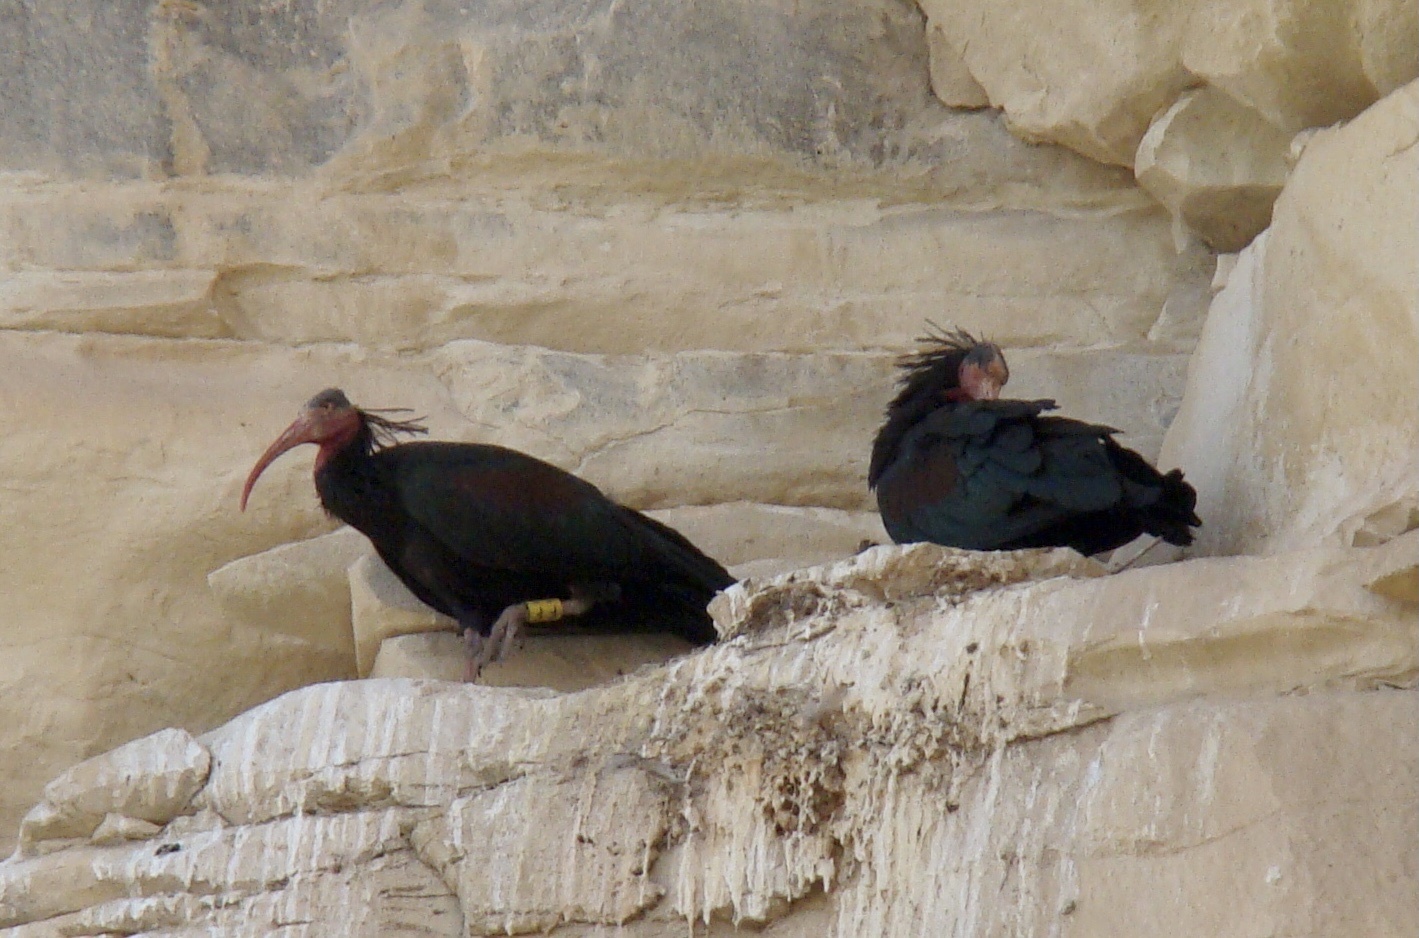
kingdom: Animalia
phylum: Chordata
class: Aves
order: Pelecaniformes
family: Threskiornithidae
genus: Geronticus
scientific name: Geronticus eremita
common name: Northern bald ibis
